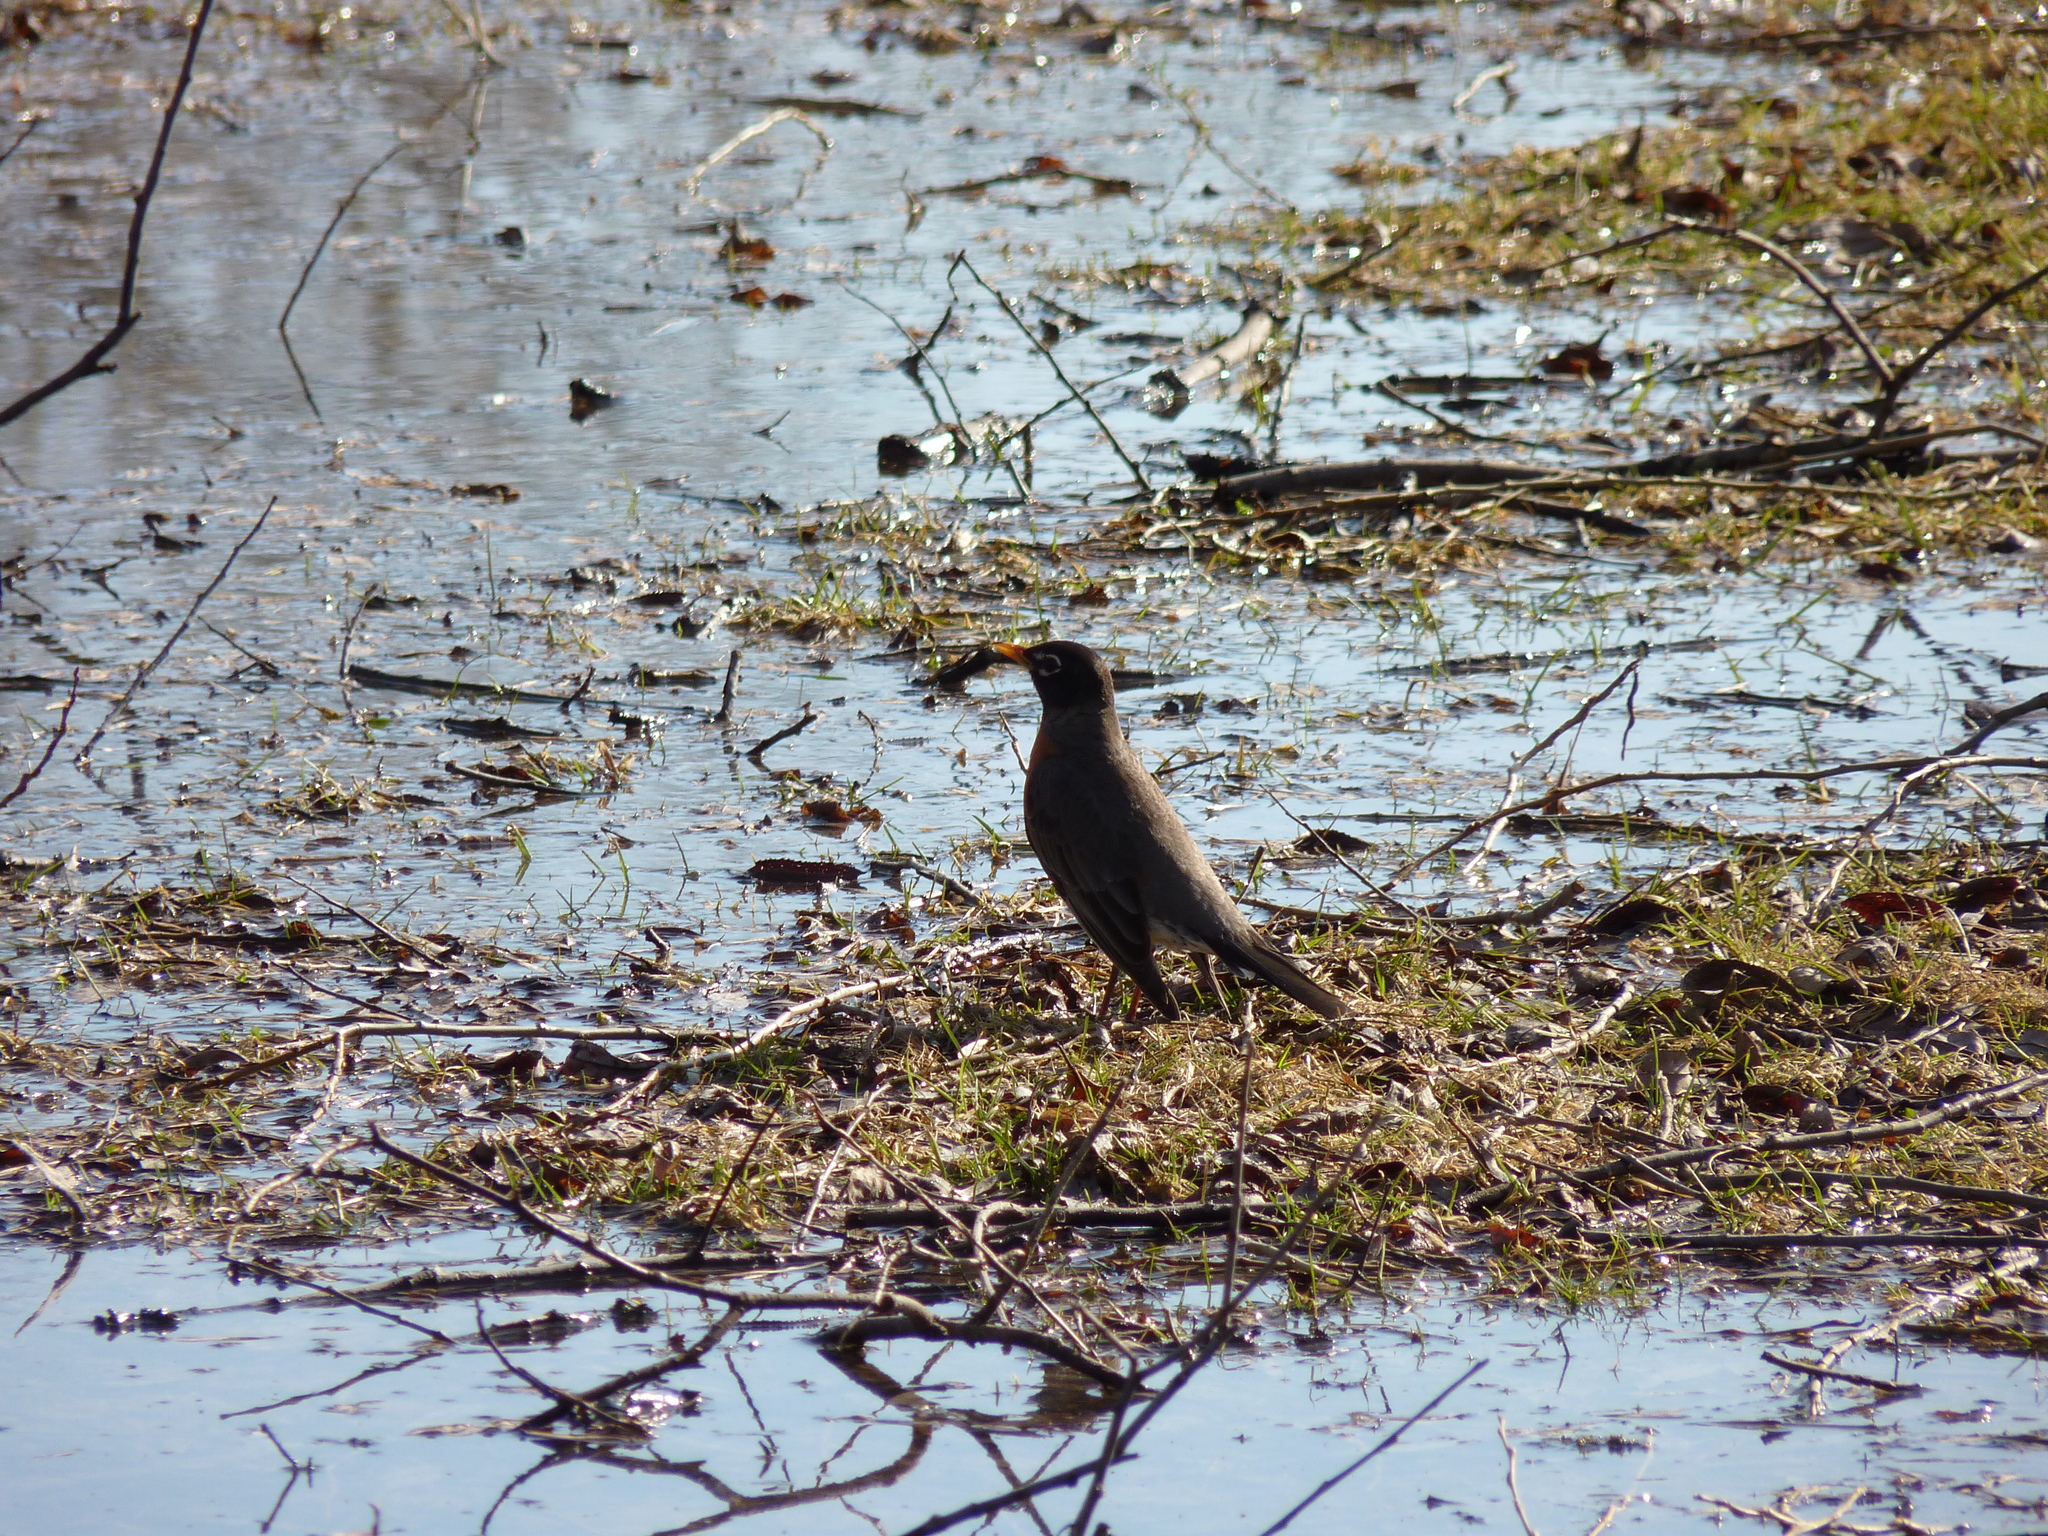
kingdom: Animalia
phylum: Chordata
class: Aves
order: Passeriformes
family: Turdidae
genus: Turdus
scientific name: Turdus migratorius
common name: American robin
